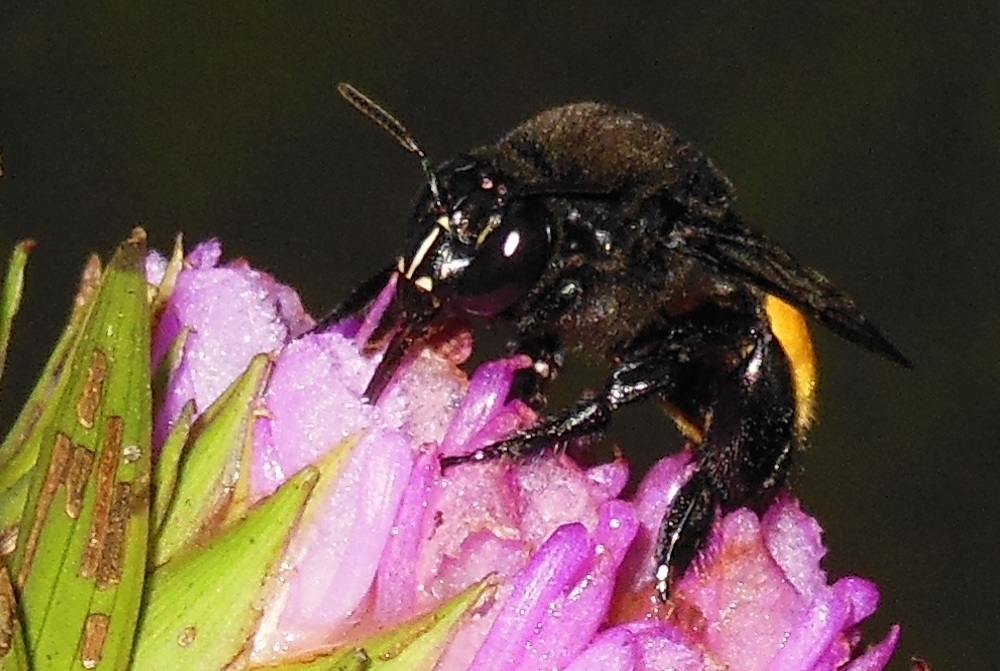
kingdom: Animalia
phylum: Arthropoda
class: Insecta
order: Hymenoptera
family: Apidae
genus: Eulaema
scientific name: Eulaema polychroma
